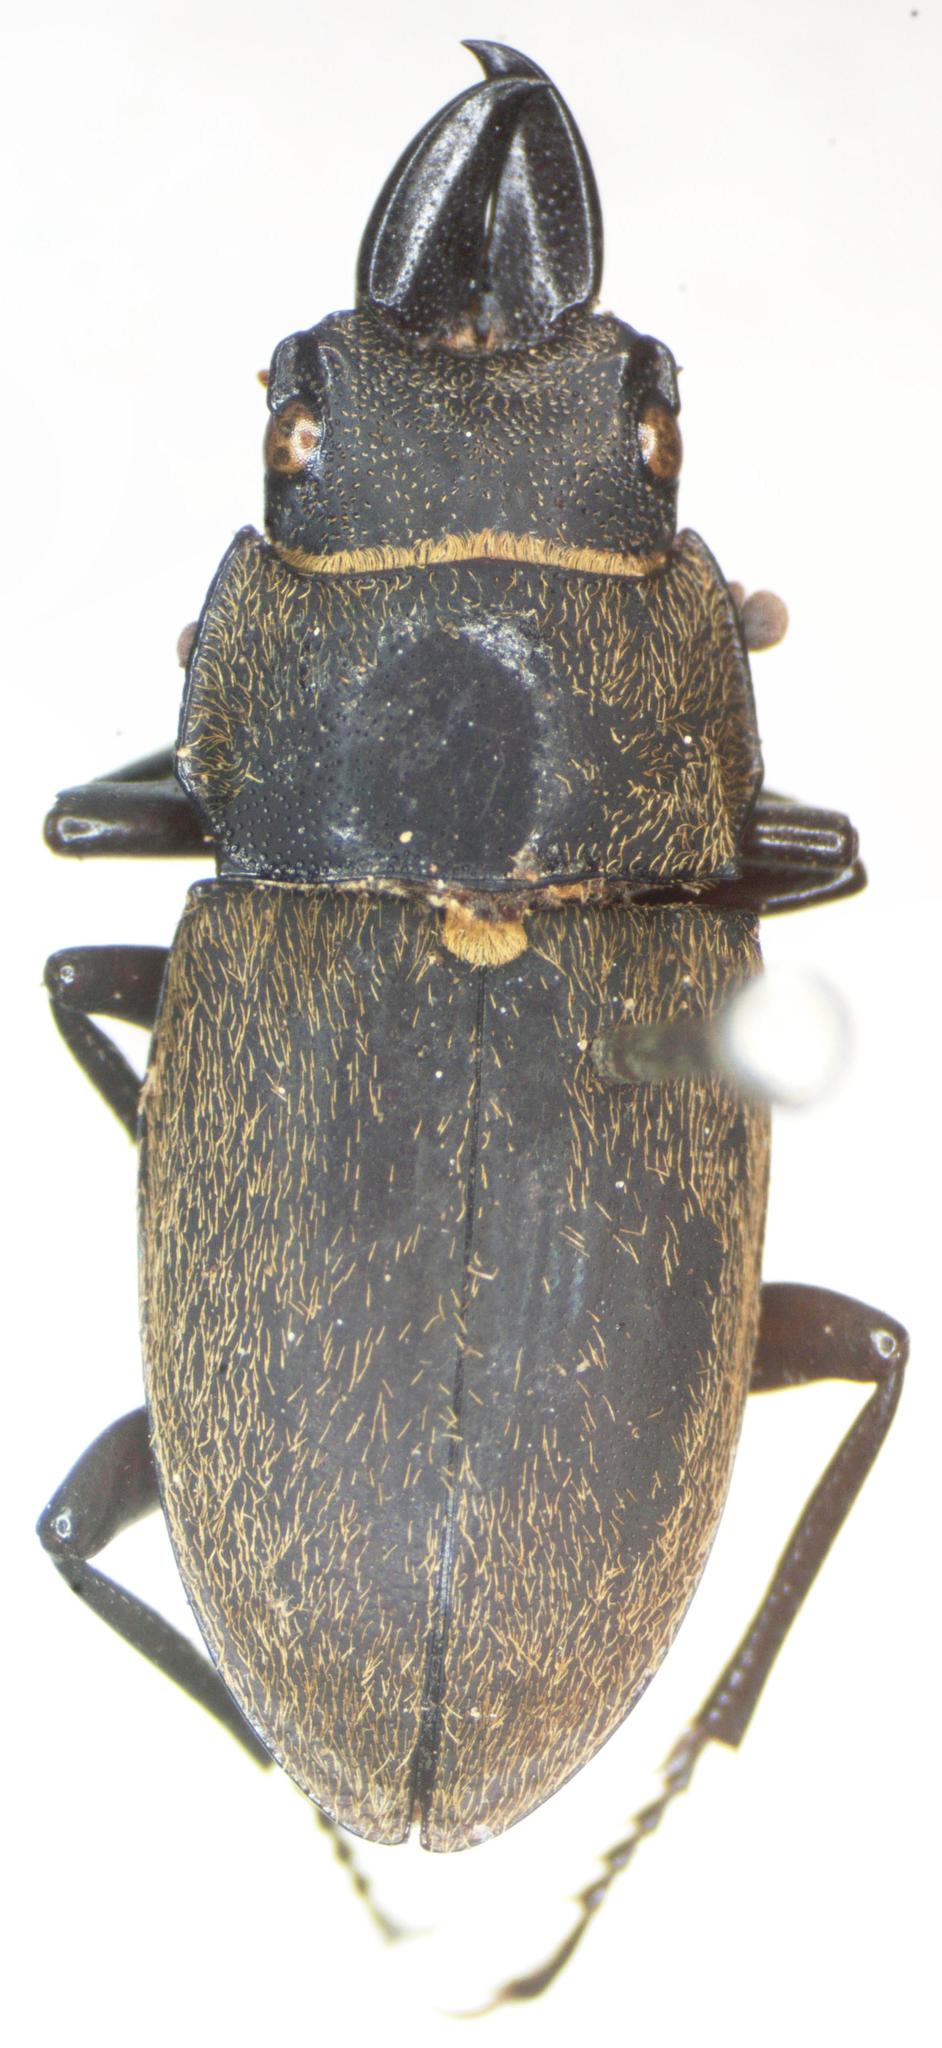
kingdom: Animalia
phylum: Arthropoda
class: Insecta
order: Coleoptera
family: Lucanidae
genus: Leptinopterus
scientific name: Leptinopterus gracilis
